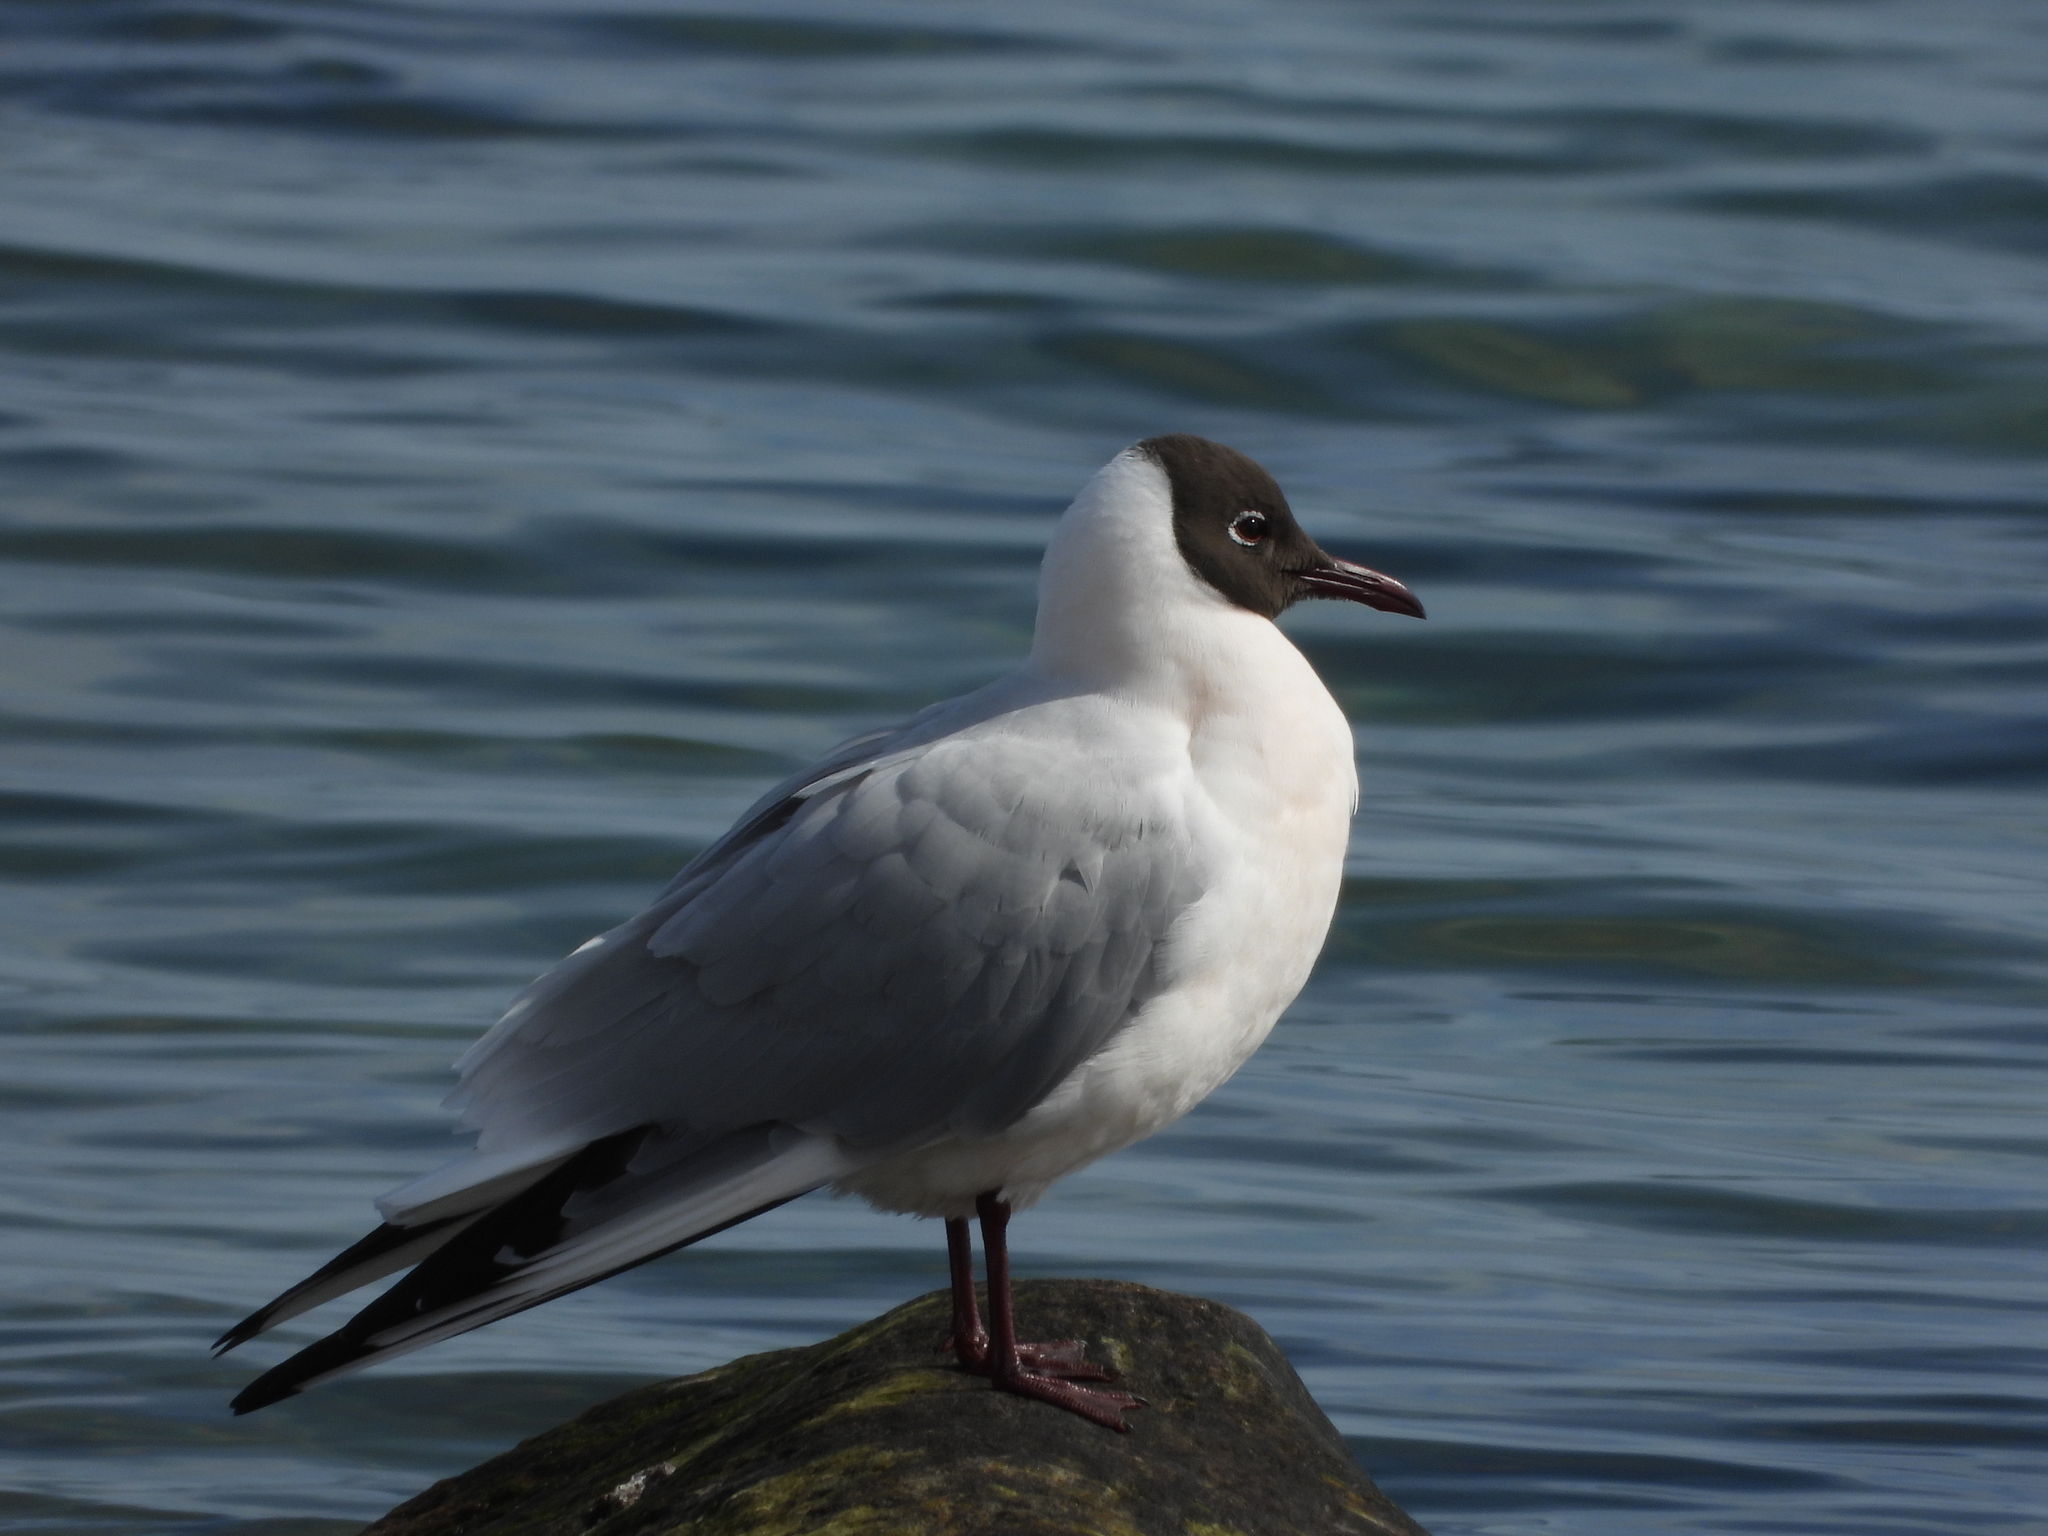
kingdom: Animalia
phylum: Chordata
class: Aves
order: Charadriiformes
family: Laridae
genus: Chroicocephalus
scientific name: Chroicocephalus ridibundus
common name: Black-headed gull
